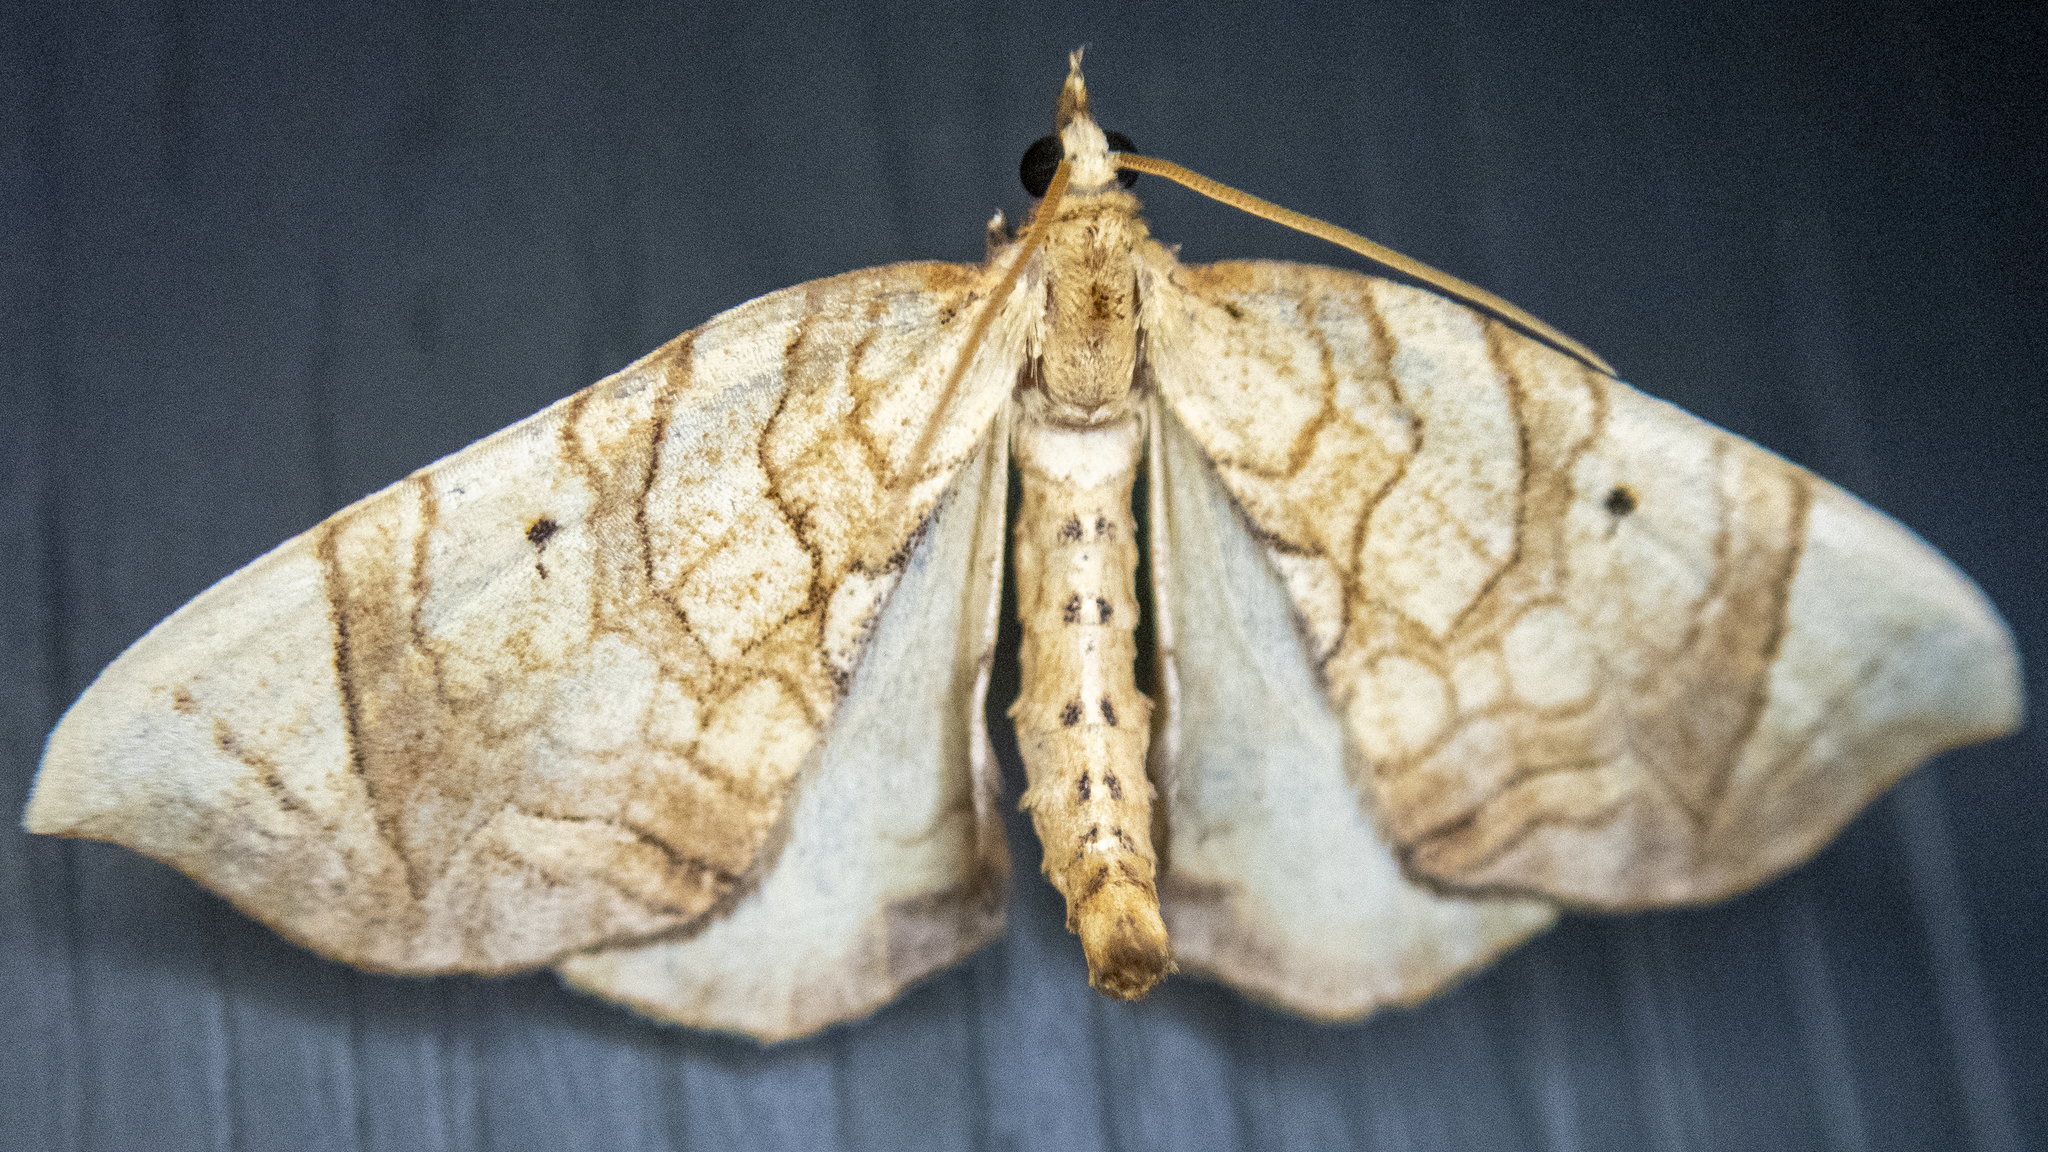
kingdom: Animalia
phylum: Arthropoda
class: Insecta
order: Lepidoptera
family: Geometridae
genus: Eulithis
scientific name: Eulithis gracilineata
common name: Greater grapevine looper moth
